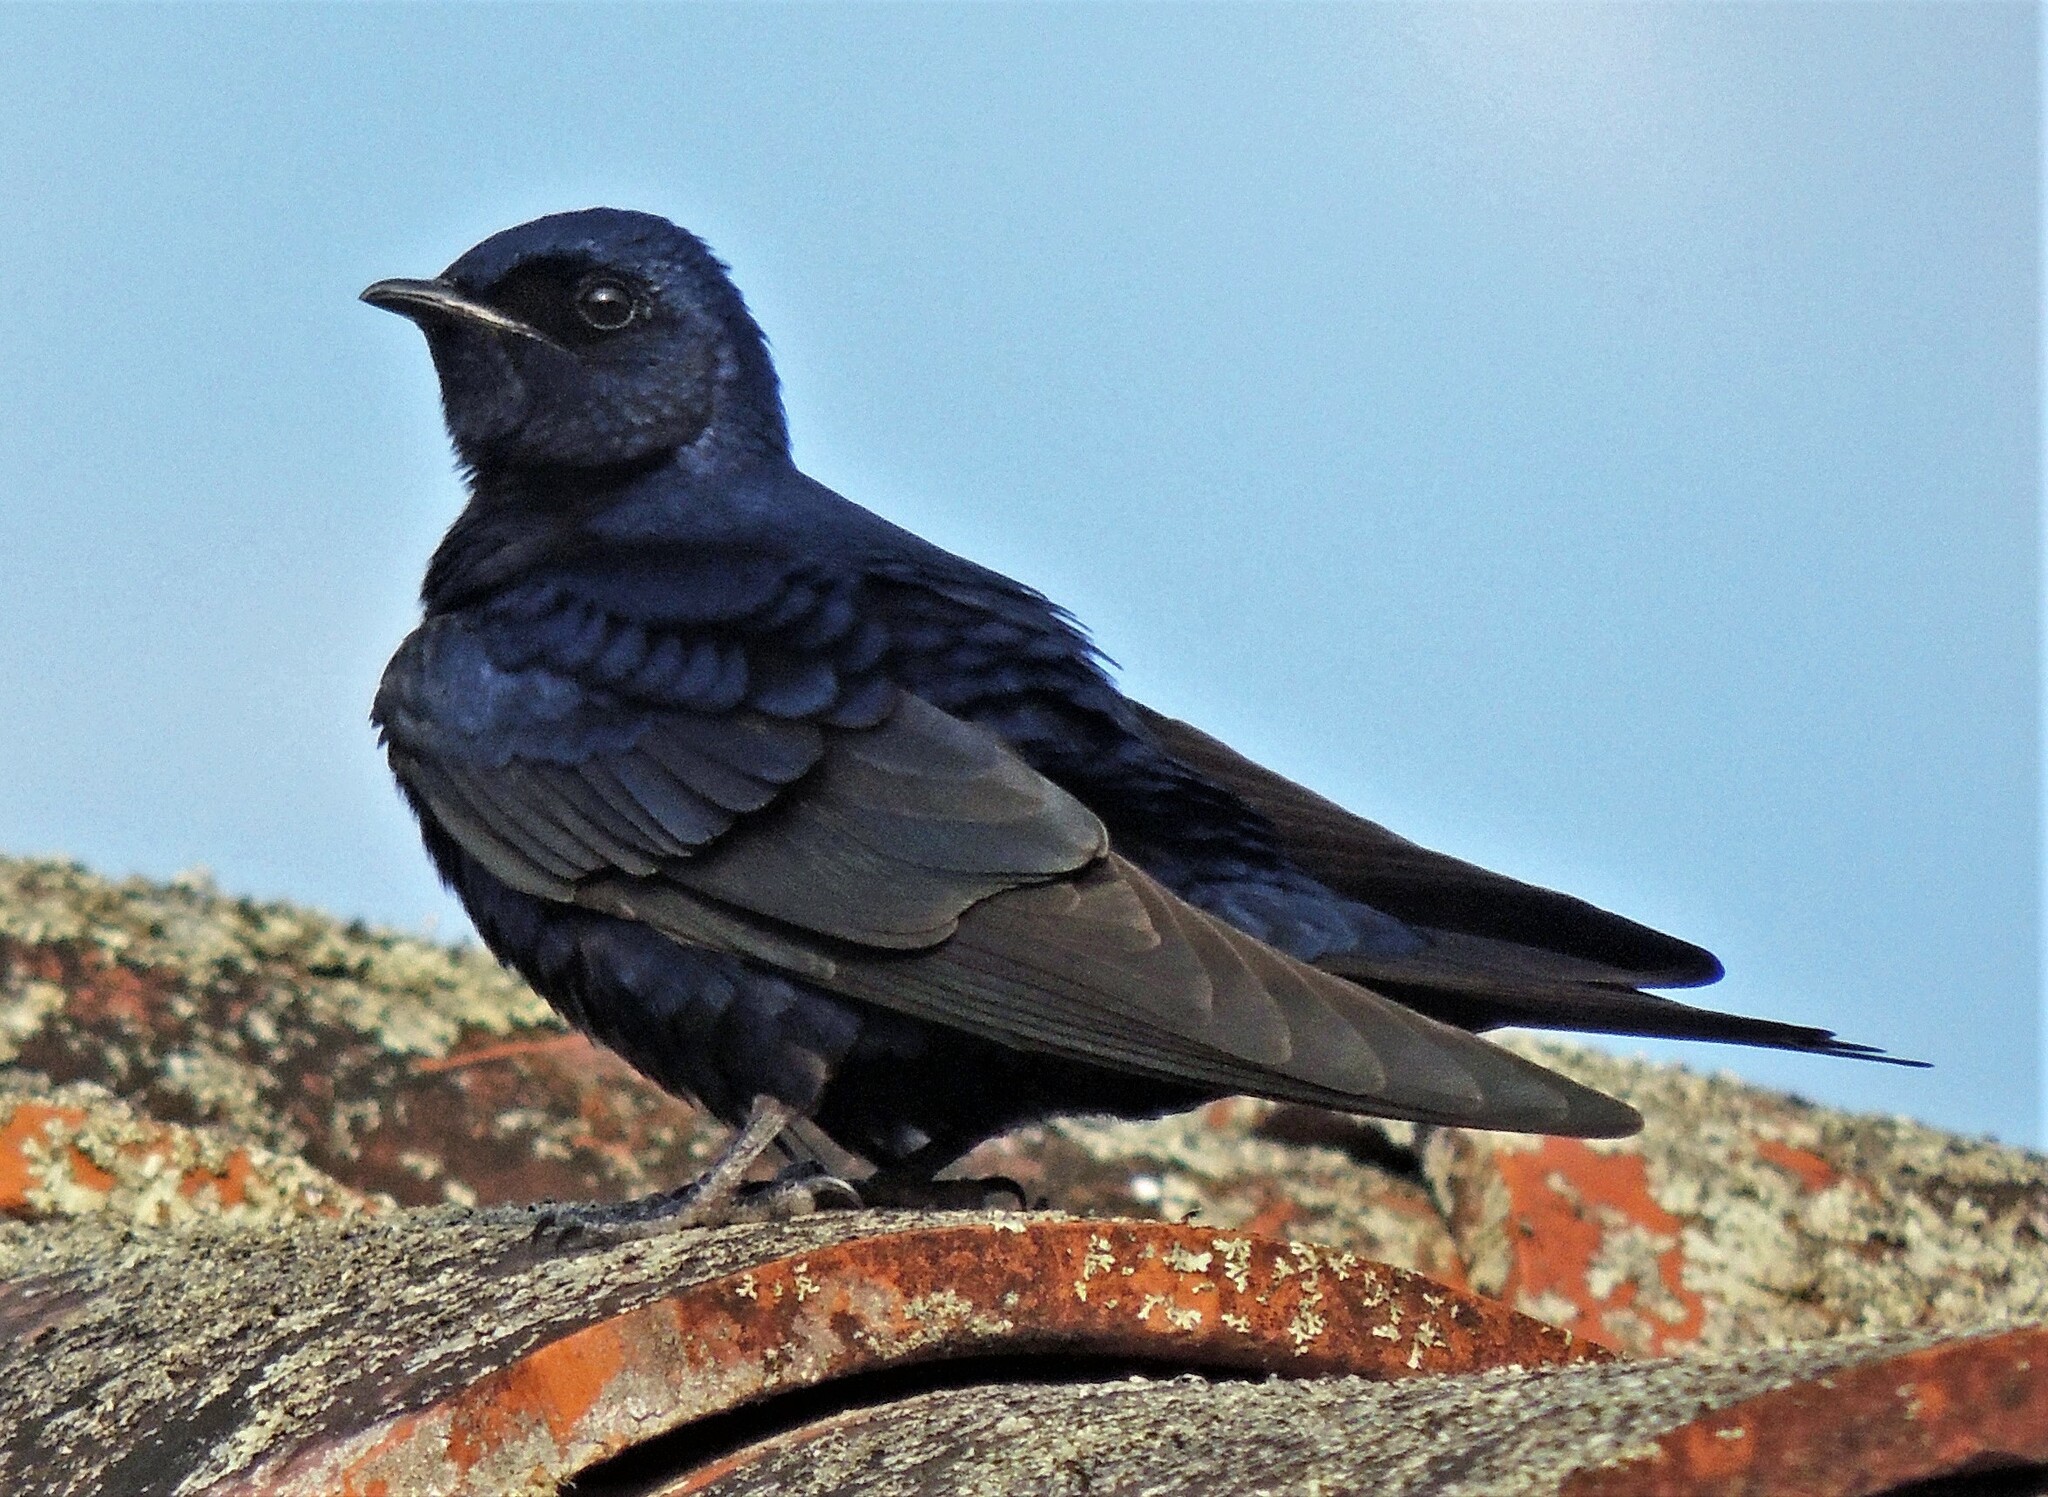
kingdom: Animalia
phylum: Chordata
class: Aves
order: Passeriformes
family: Hirundinidae
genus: Progne
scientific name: Progne elegans
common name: Southern martin
